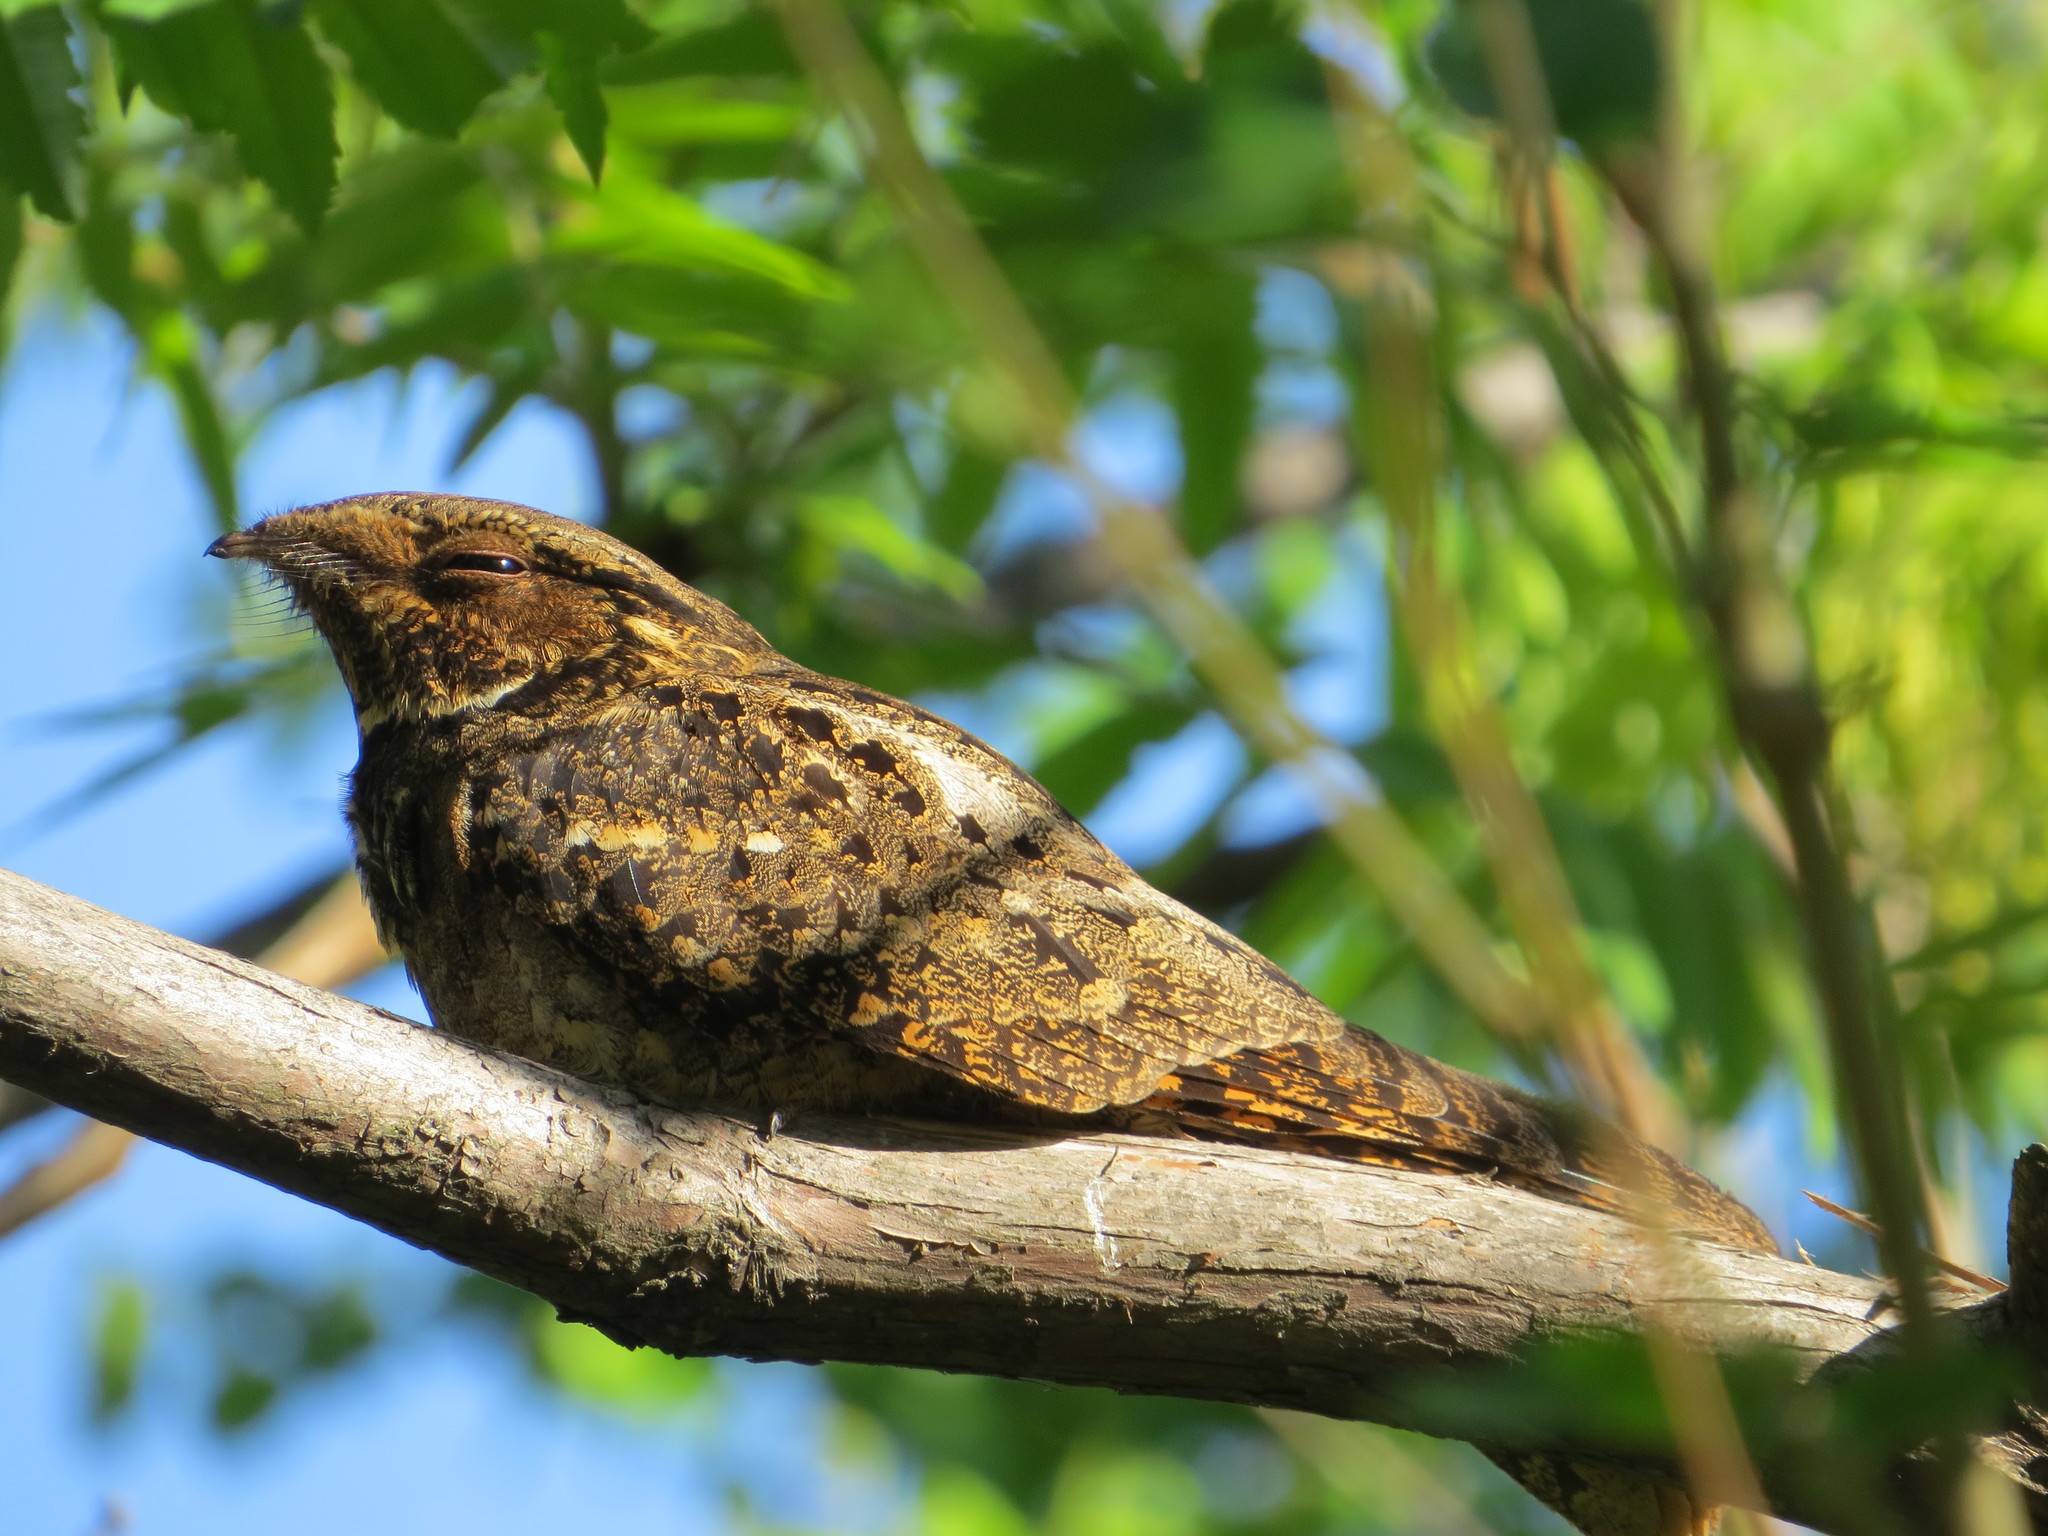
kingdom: Animalia
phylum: Chordata
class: Aves
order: Caprimulgiformes
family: Caprimulgidae
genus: Antrostomus
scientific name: Antrostomus carolinensis
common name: Chuck-will's-widow
